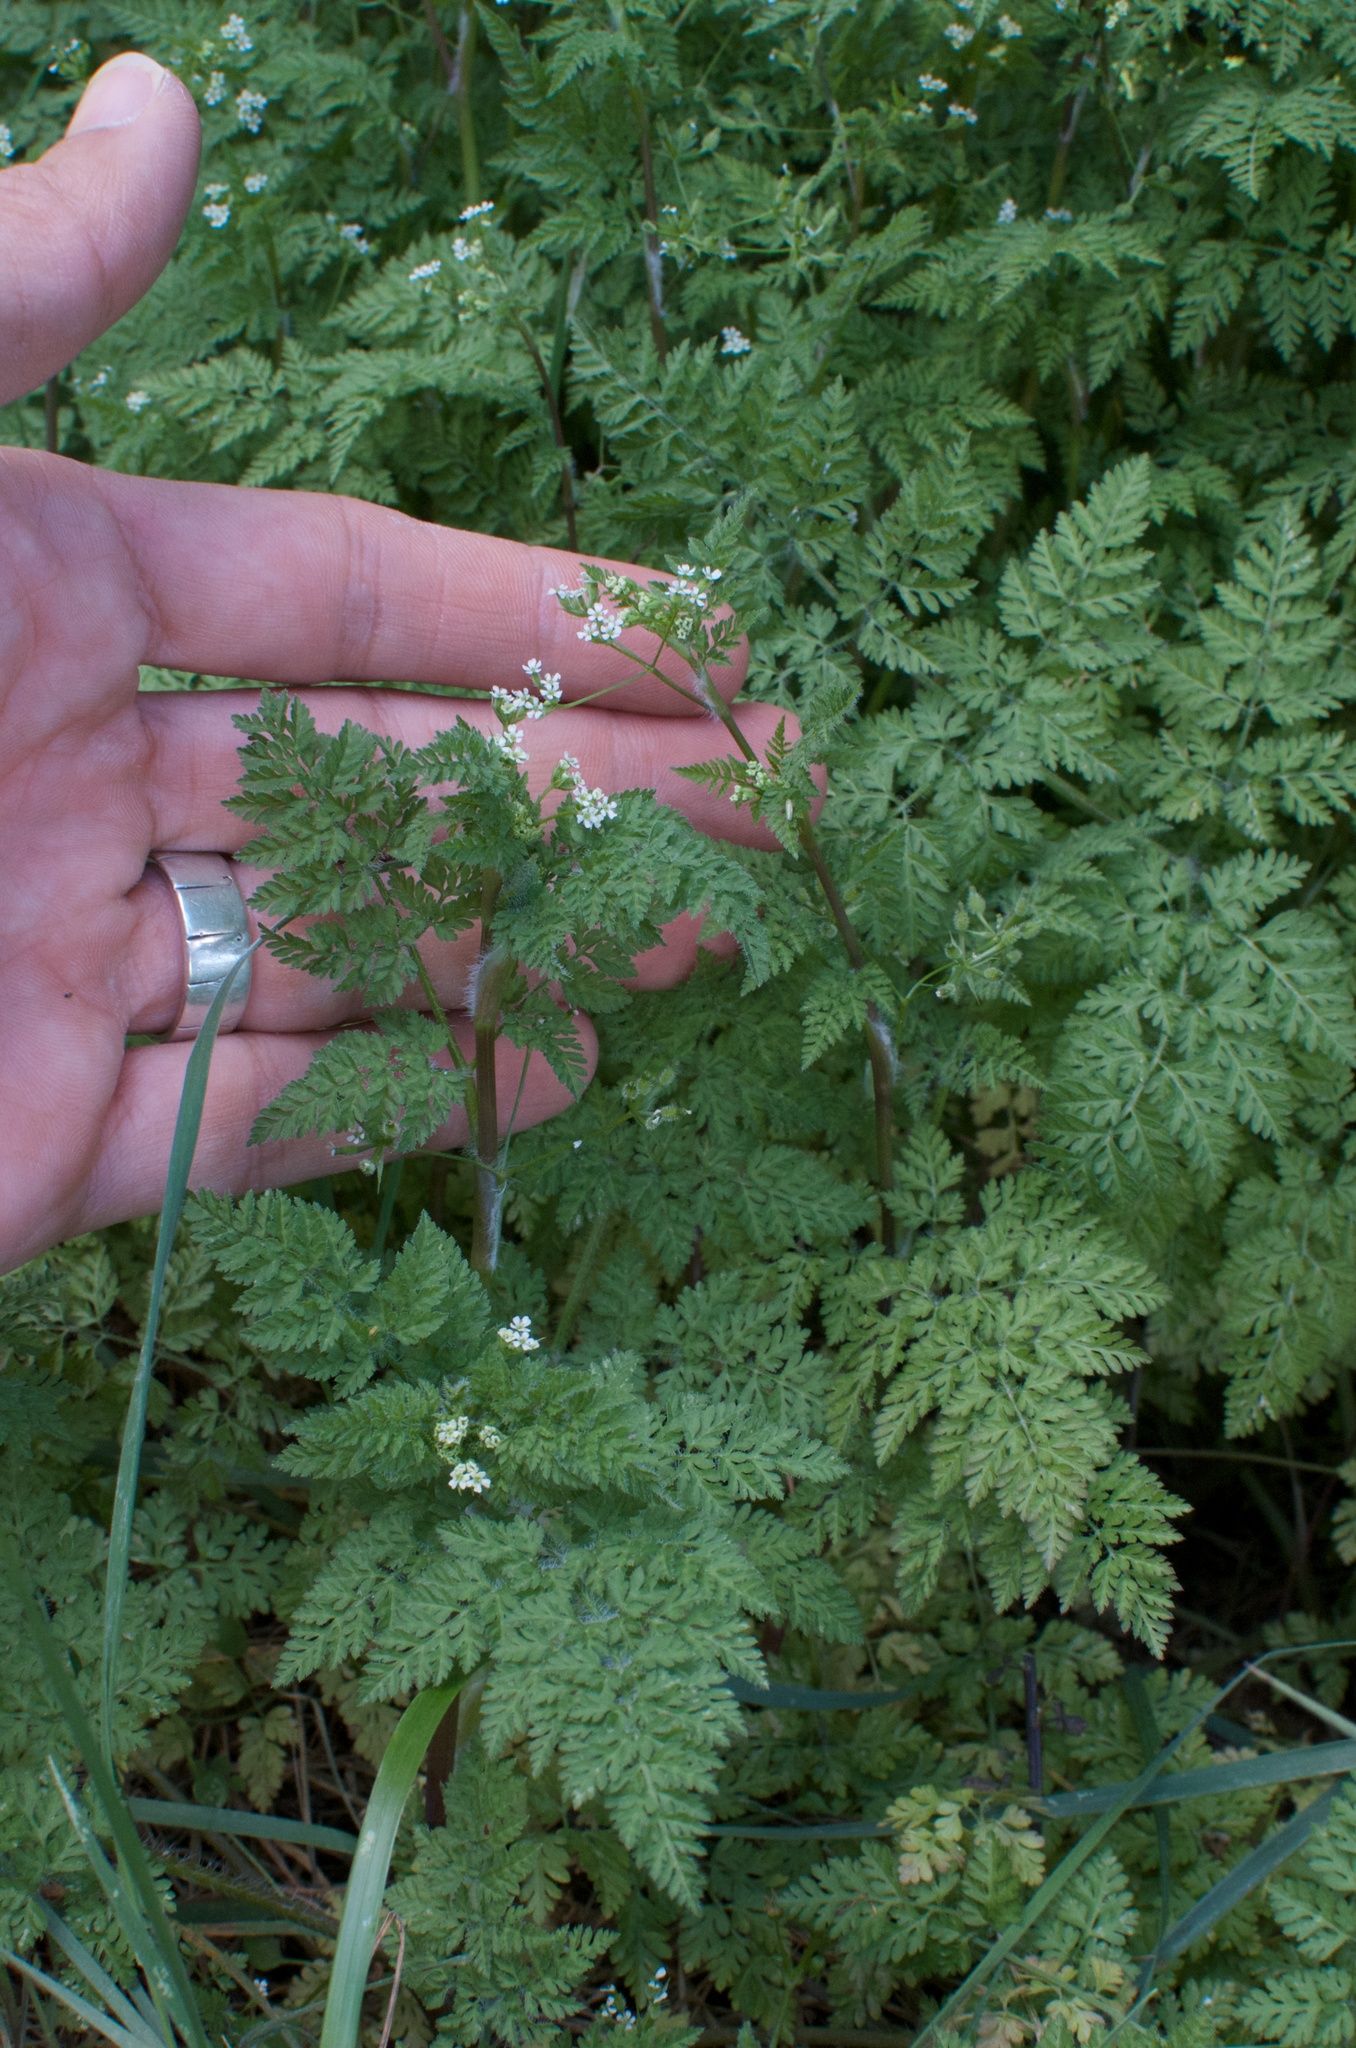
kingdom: Plantae
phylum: Tracheophyta
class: Magnoliopsida
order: Apiales
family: Apiaceae
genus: Anthriscus
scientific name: Anthriscus caucalis
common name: Bur chervil
